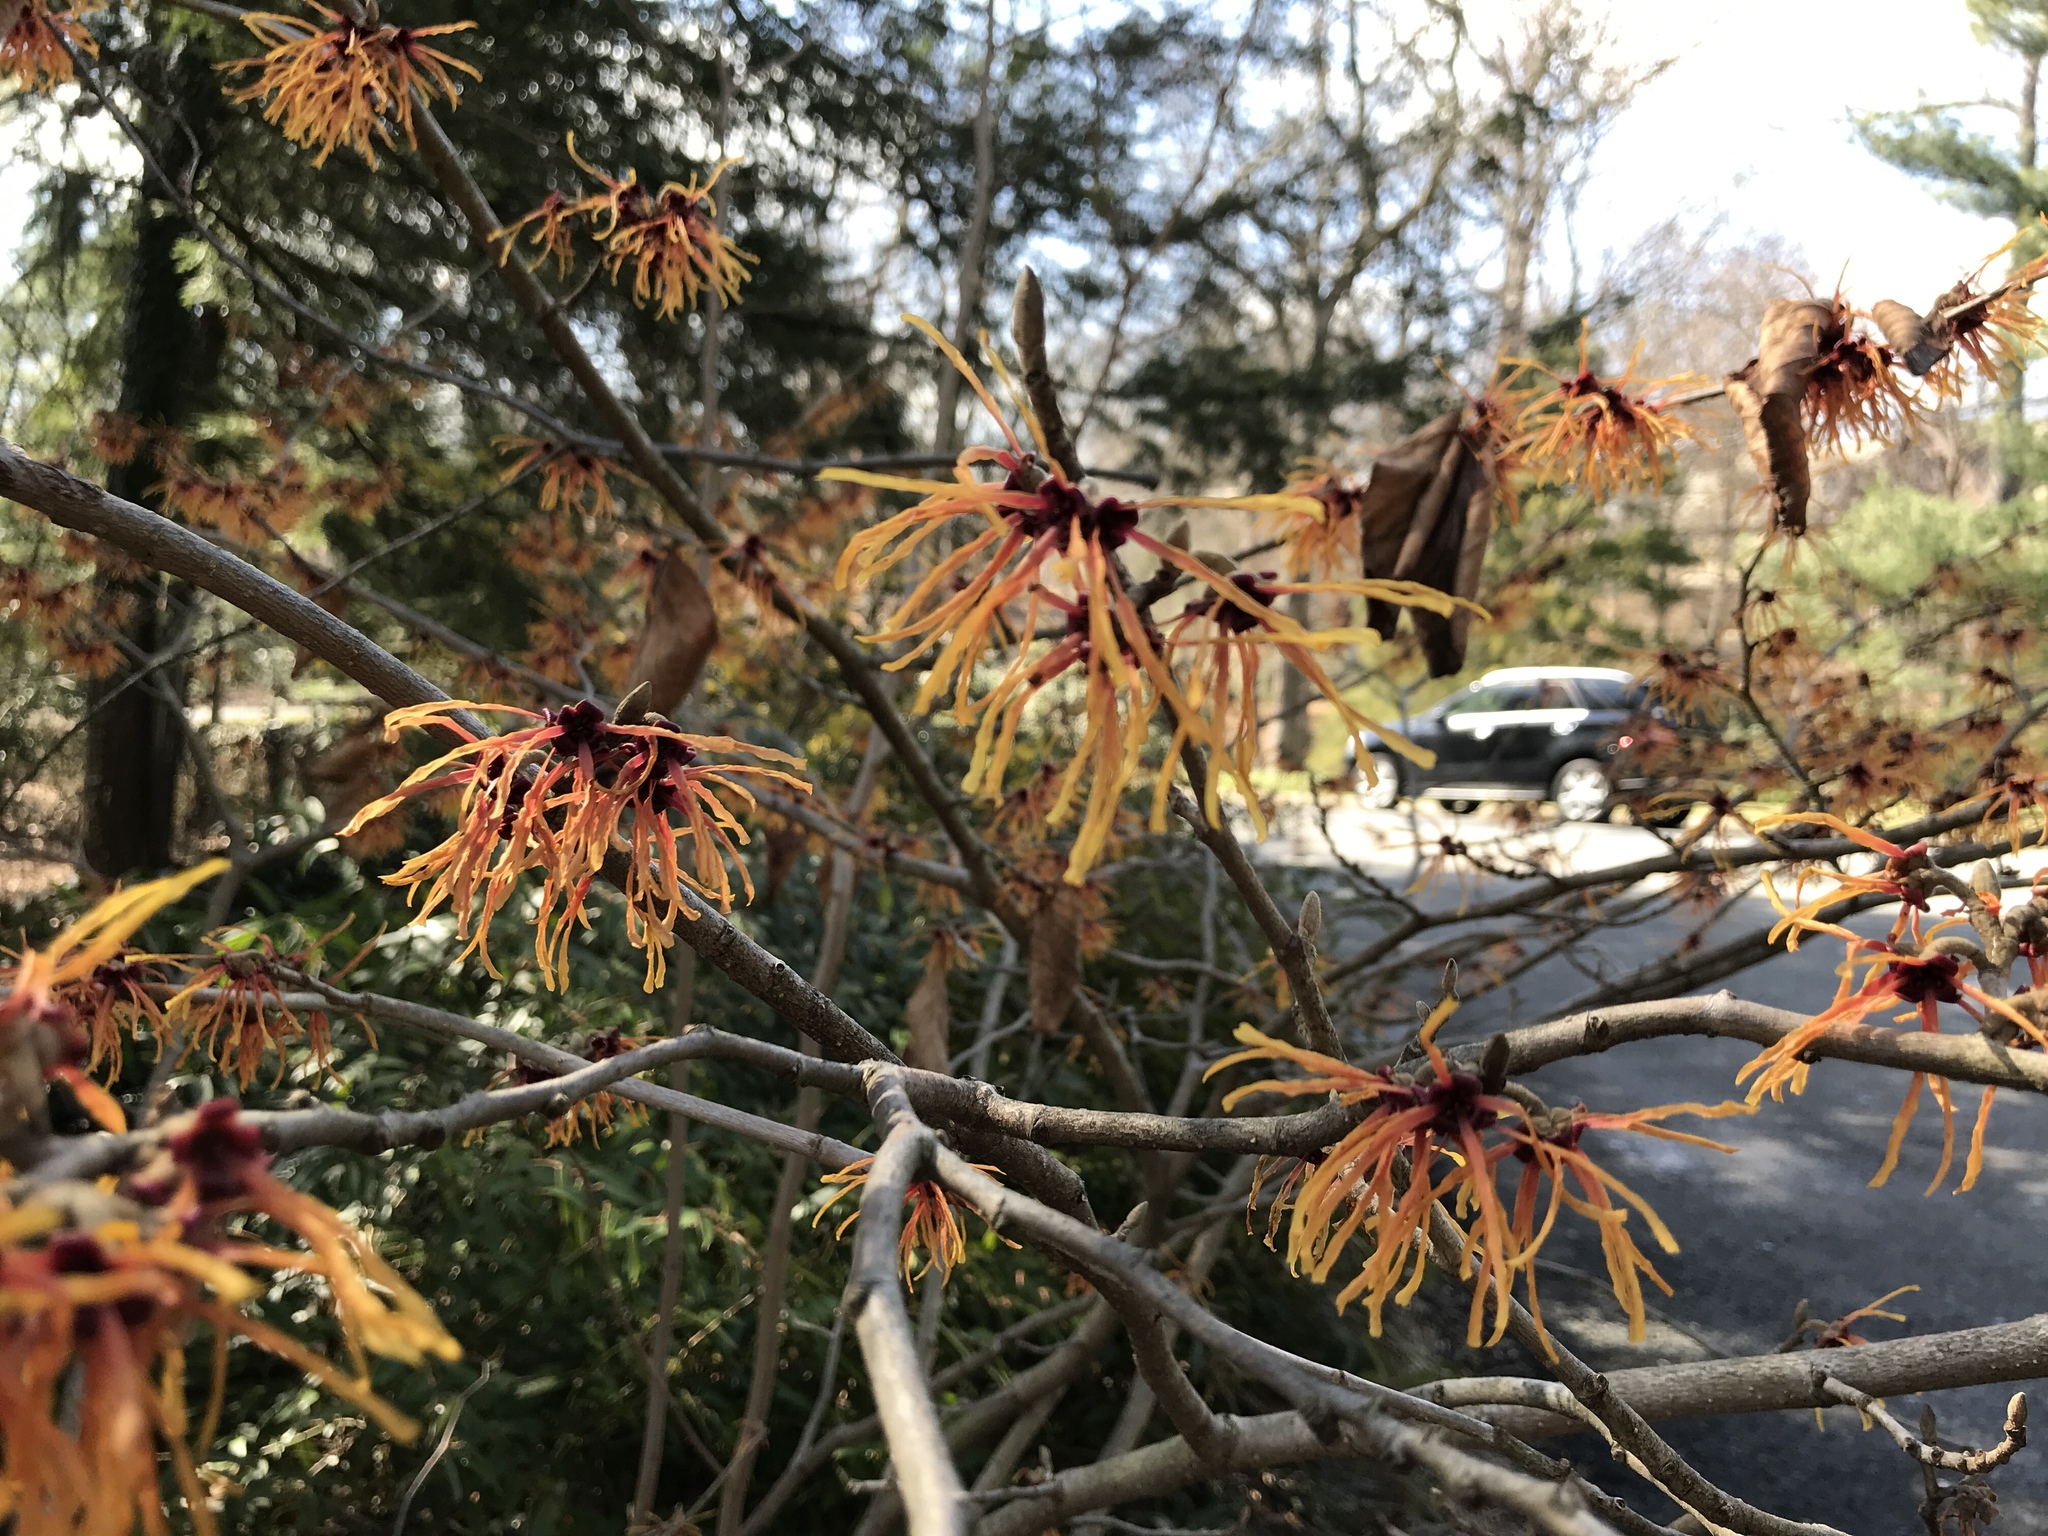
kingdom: Plantae
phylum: Tracheophyta
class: Magnoliopsida
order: Saxifragales
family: Hamamelidaceae
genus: Hamamelis
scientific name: Hamamelis
